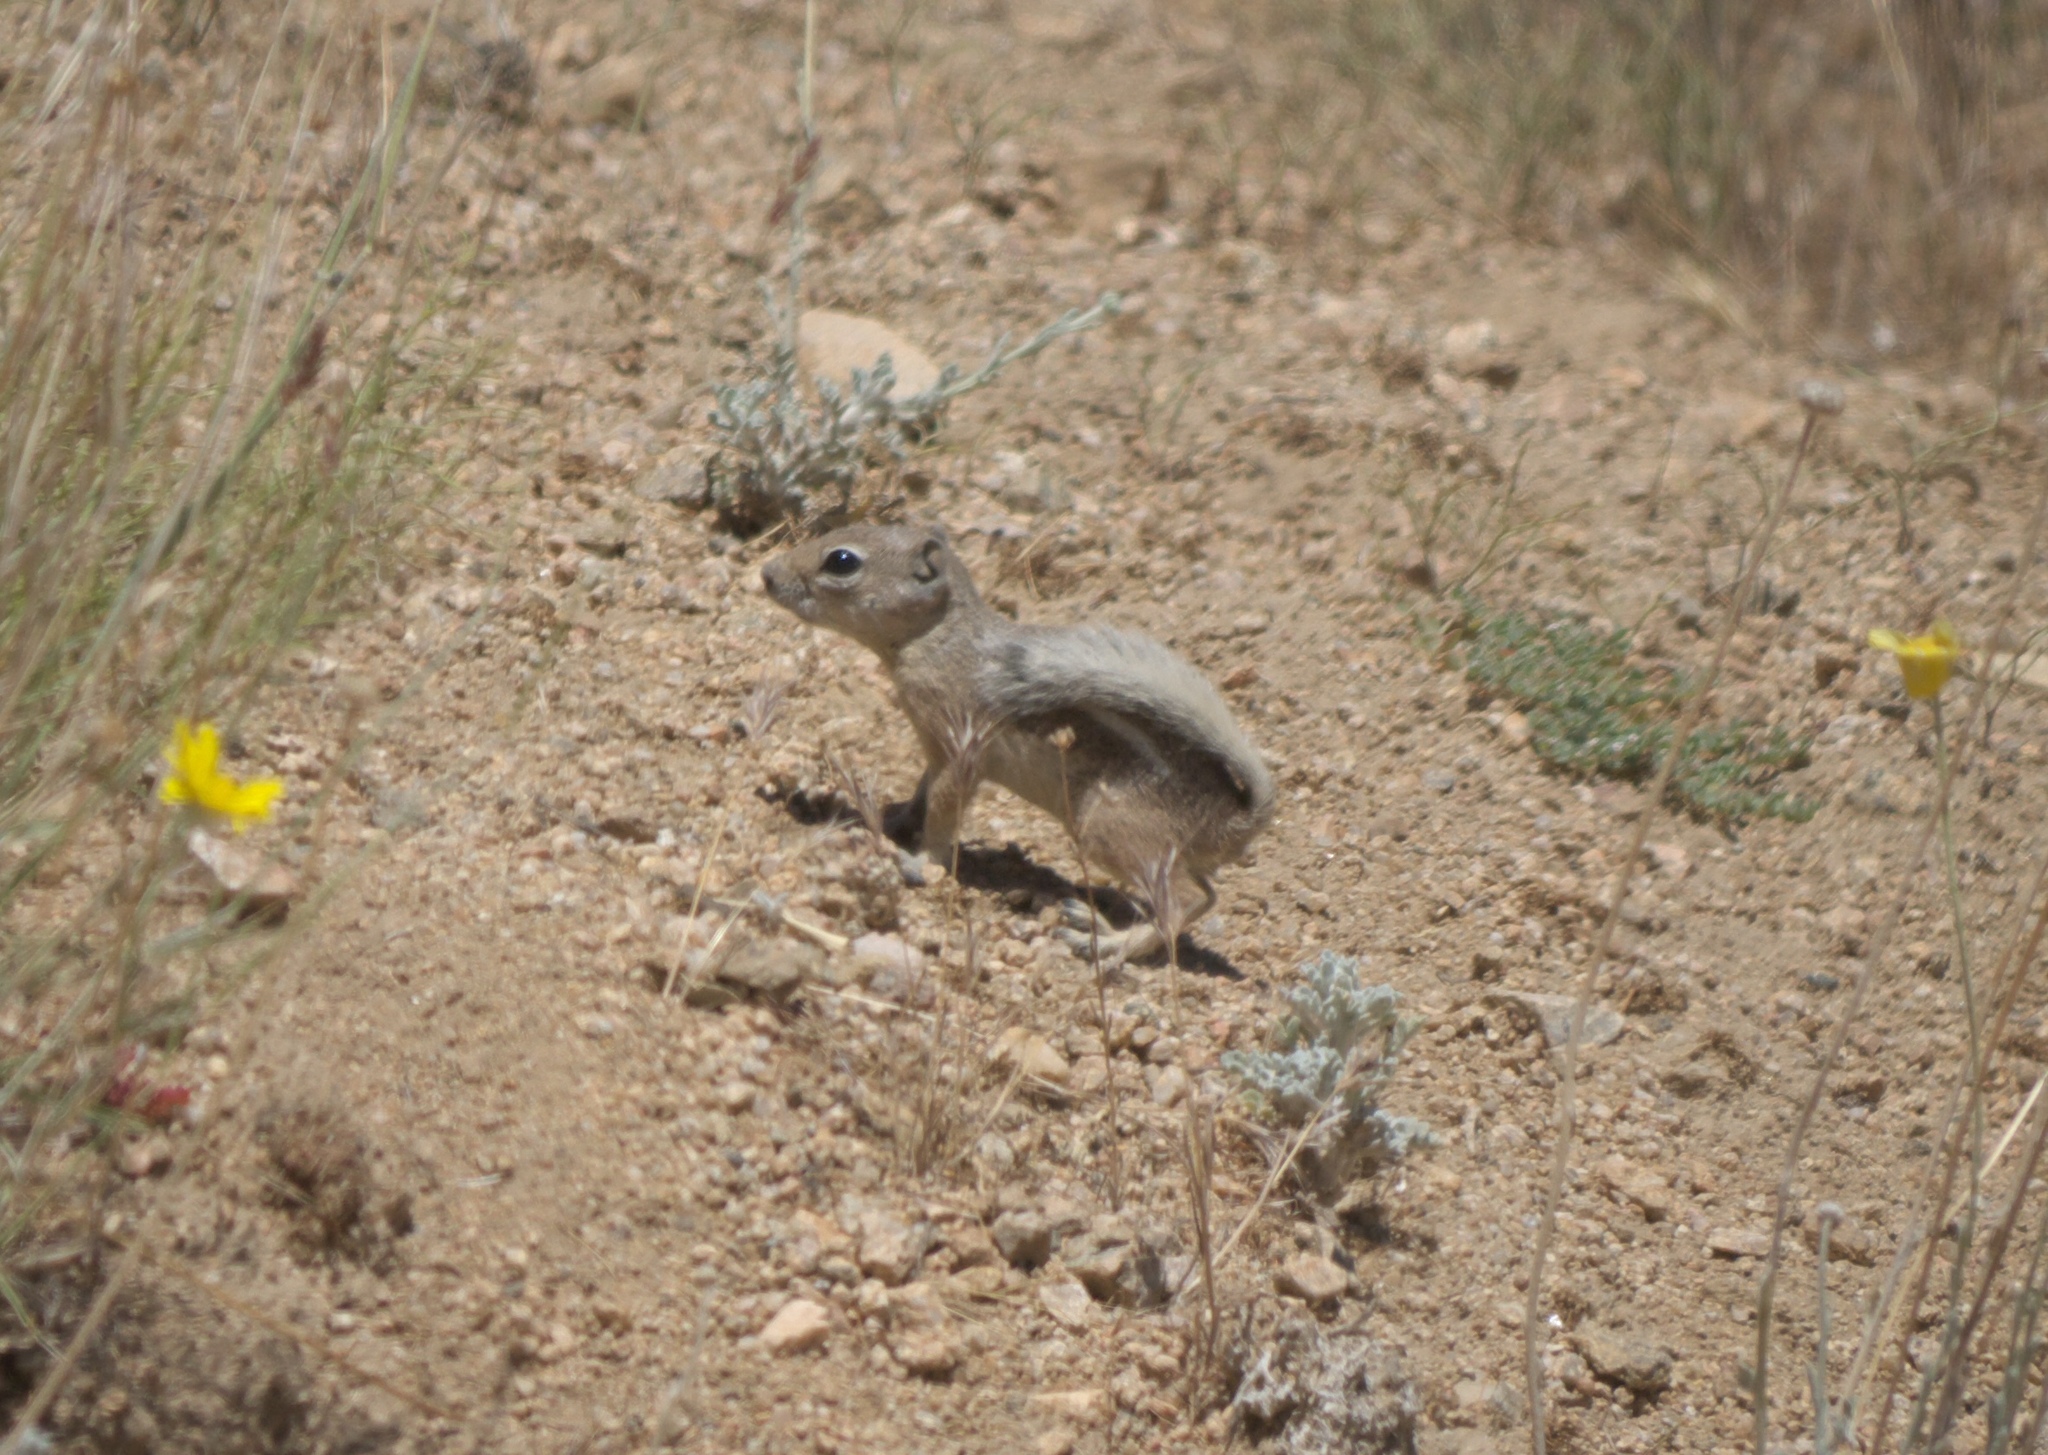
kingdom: Animalia
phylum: Chordata
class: Mammalia
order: Rodentia
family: Sciuridae
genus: Ammospermophilus
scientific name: Ammospermophilus leucurus
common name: White-tailed antelope squirrel
